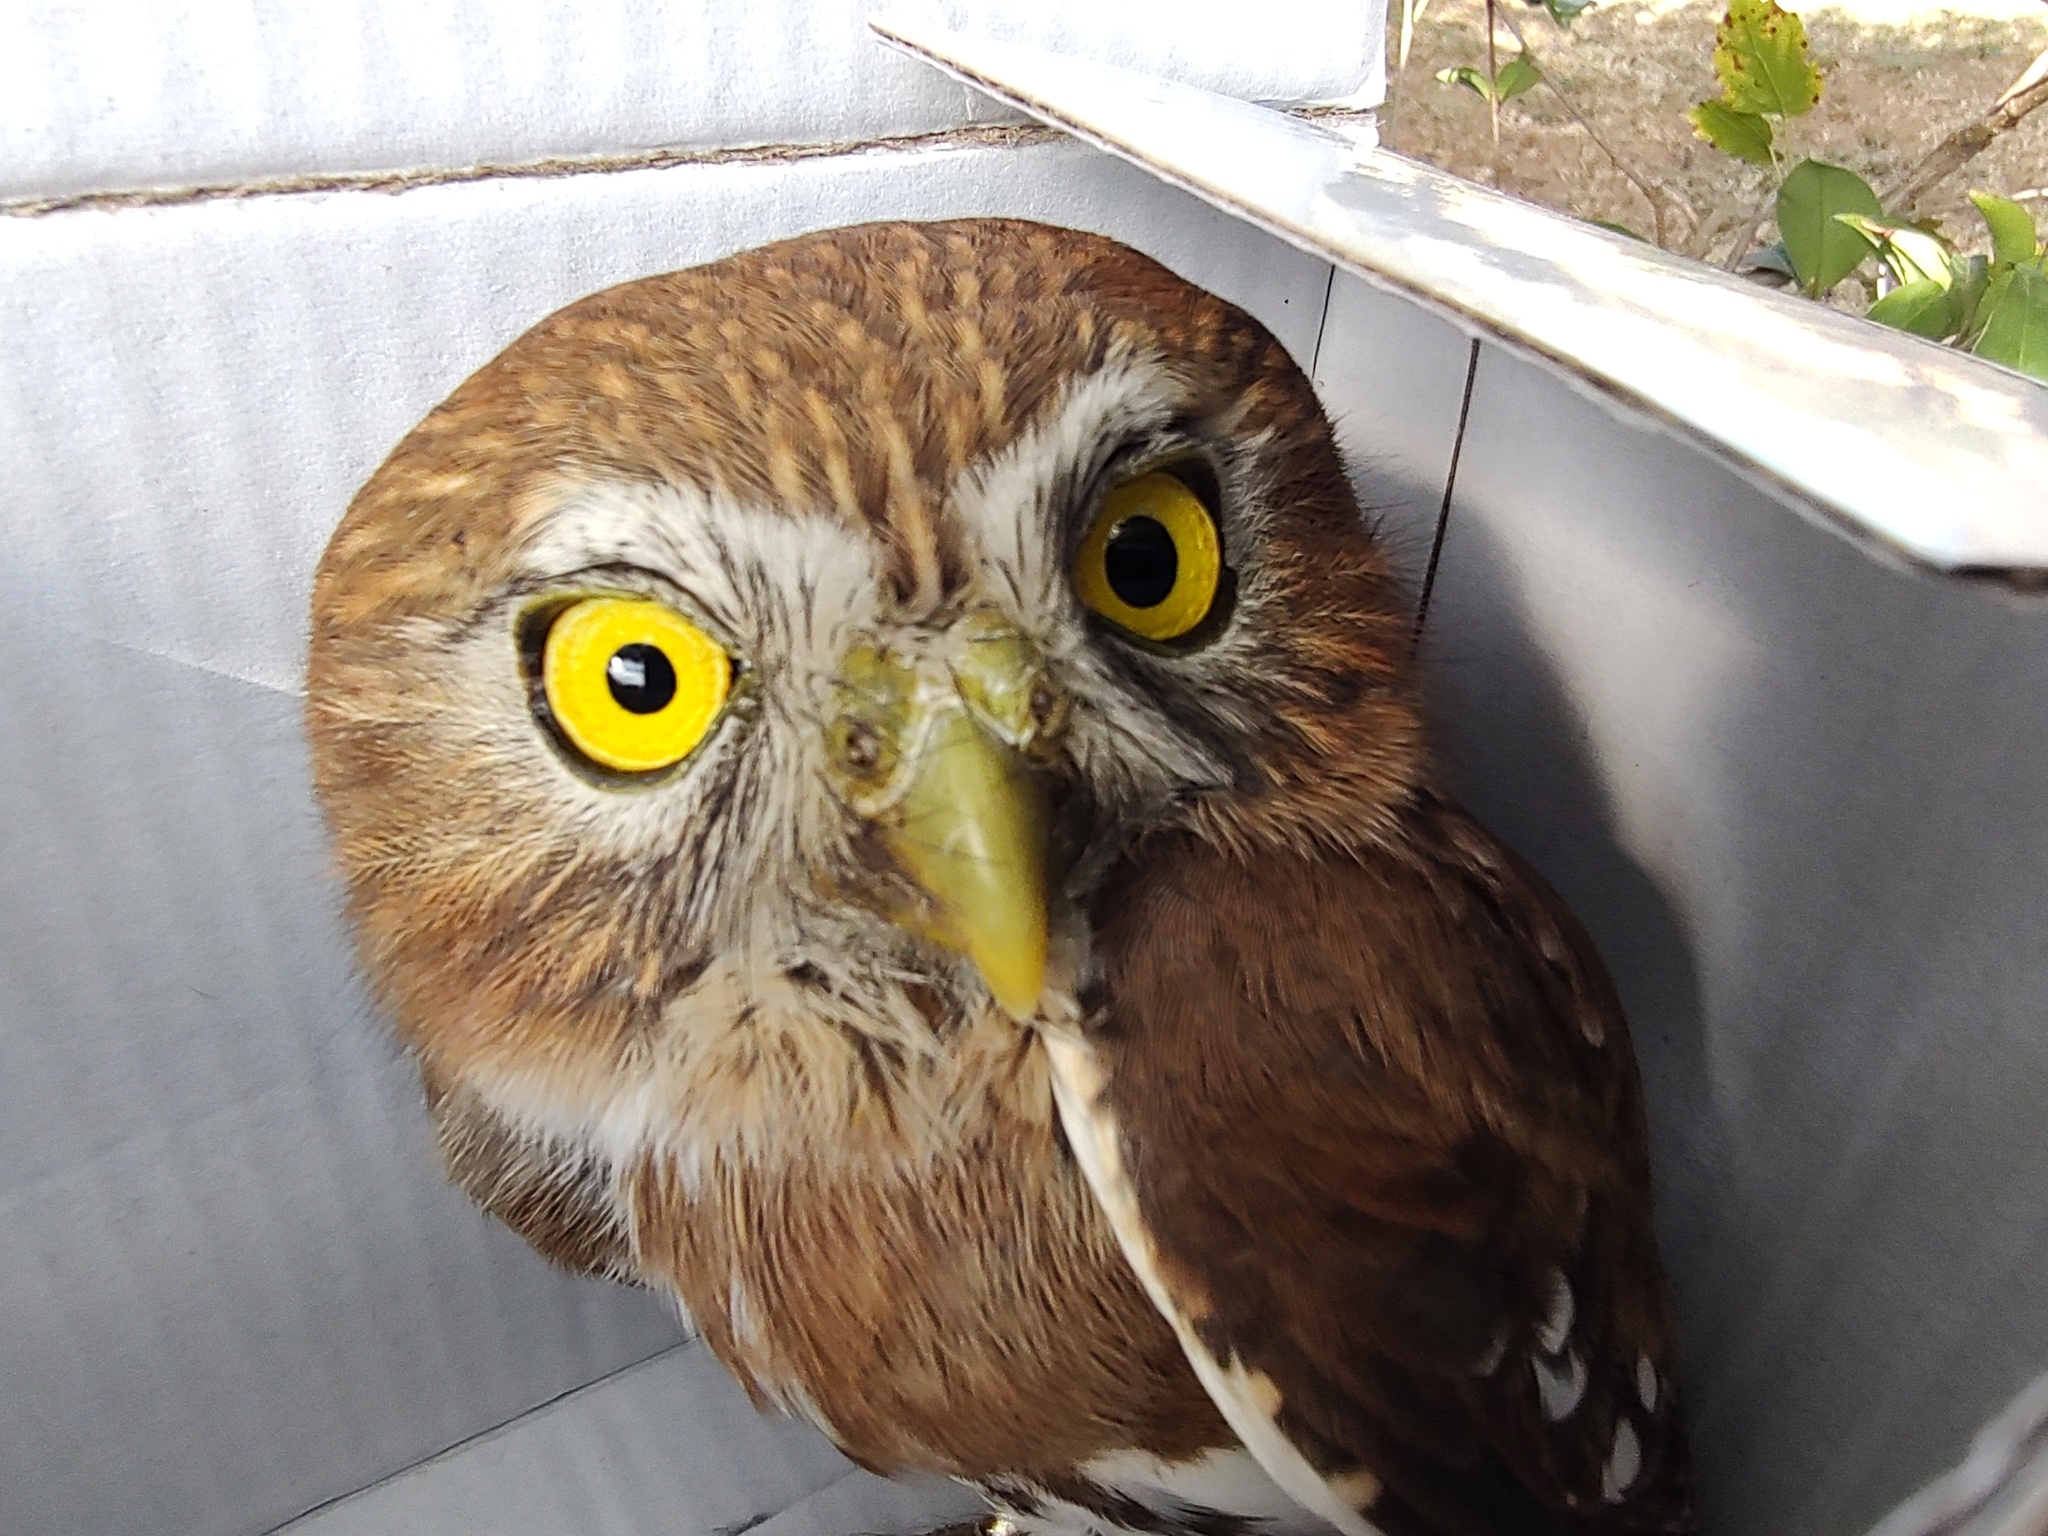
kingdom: Animalia
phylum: Chordata
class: Aves
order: Strigiformes
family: Strigidae
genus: Glaucidium
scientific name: Glaucidium brasilianum
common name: Ferruginous pygmy-owl
